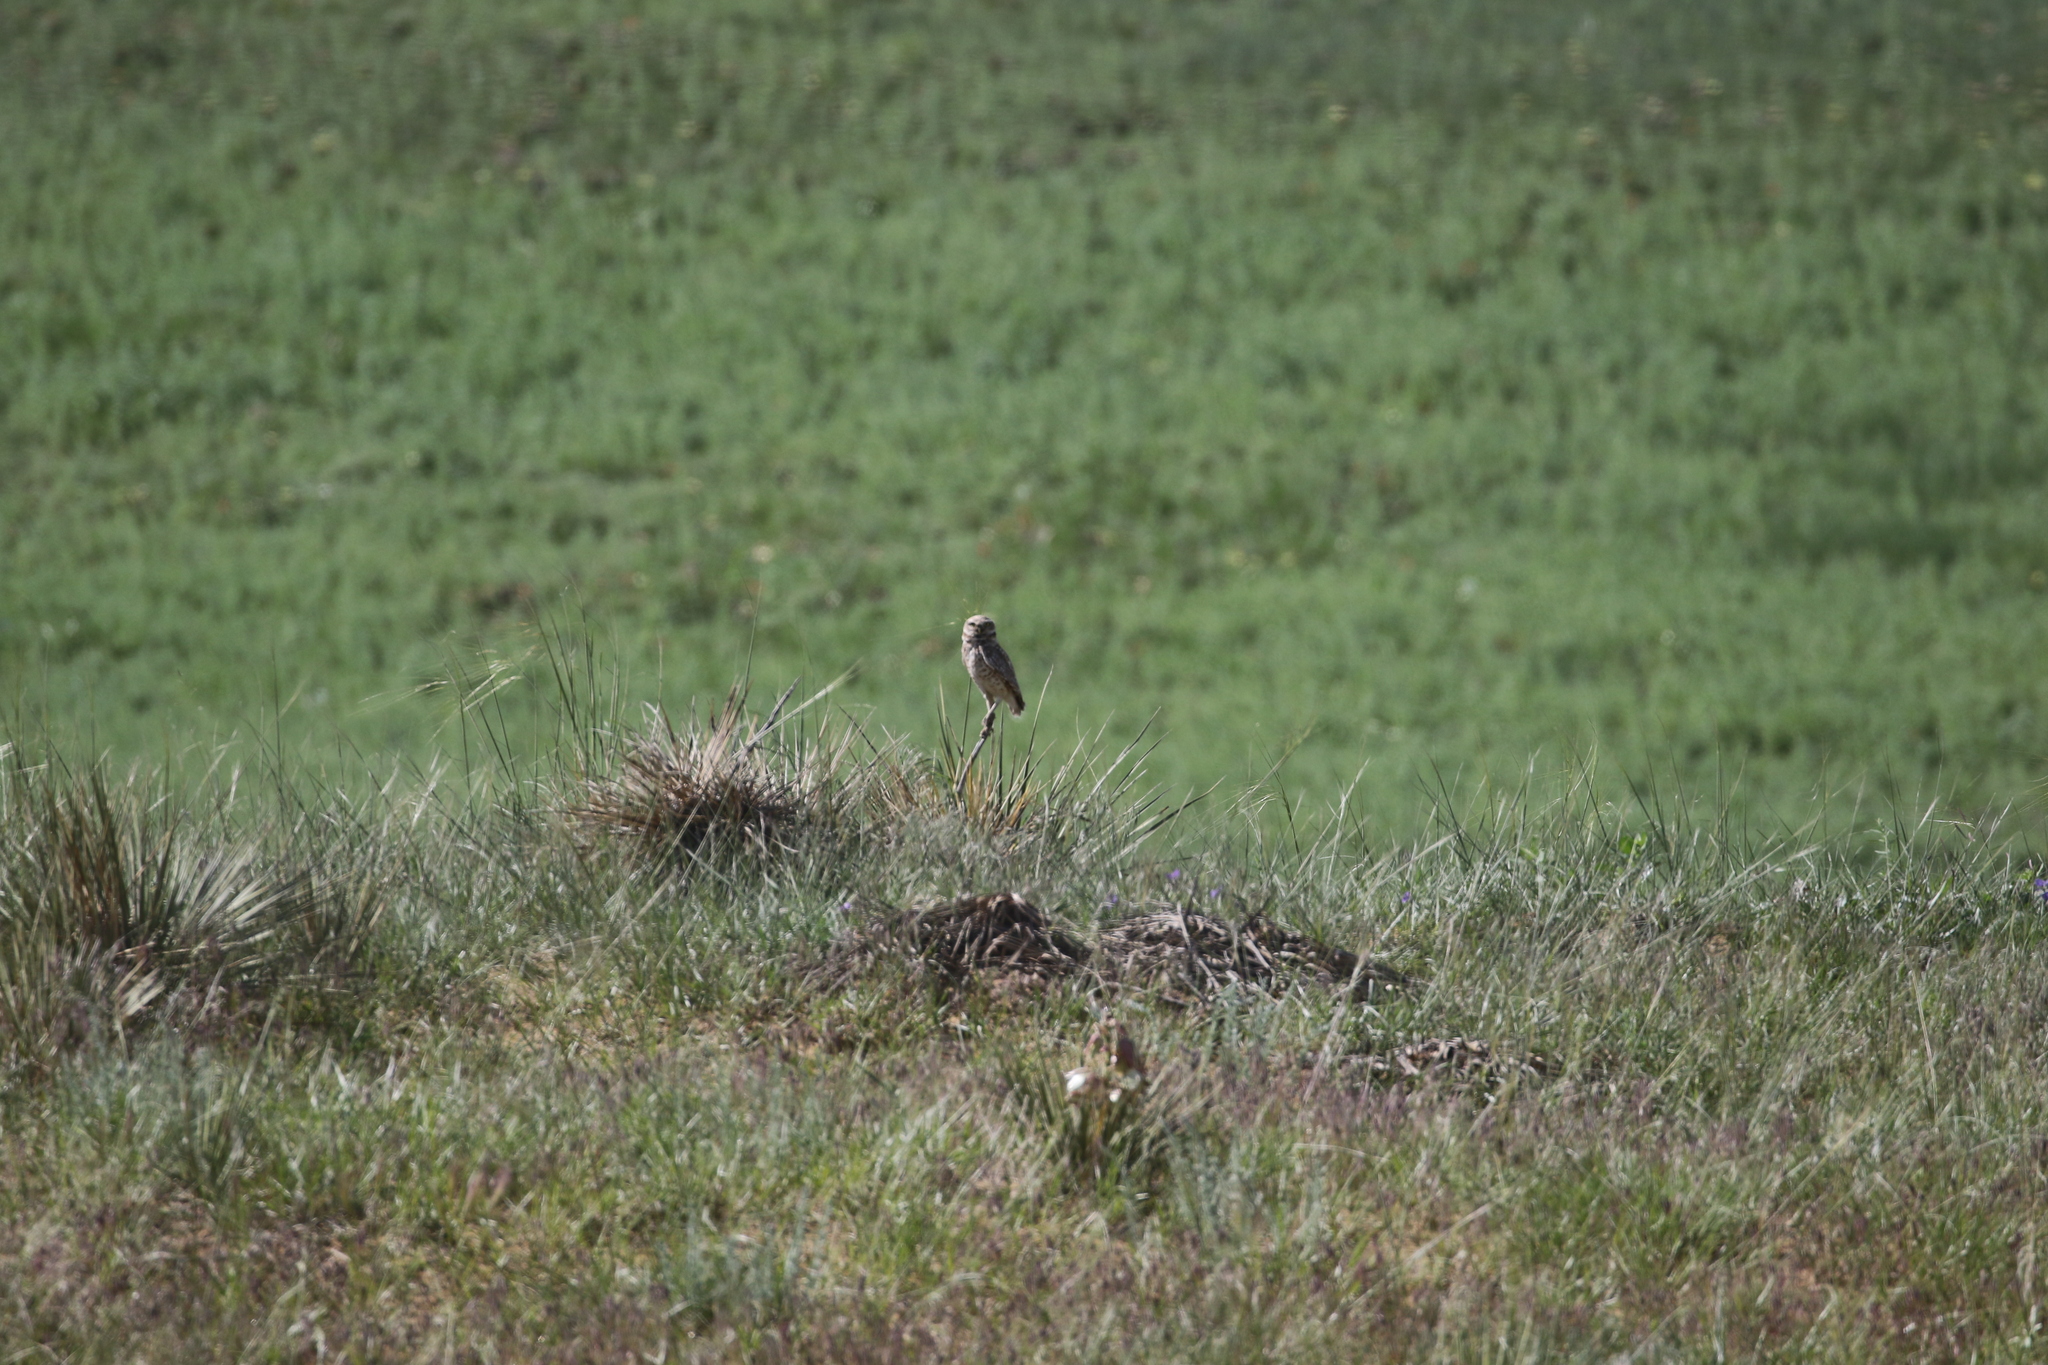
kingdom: Animalia
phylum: Chordata
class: Aves
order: Strigiformes
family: Strigidae
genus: Athene
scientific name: Athene cunicularia
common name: Burrowing owl
